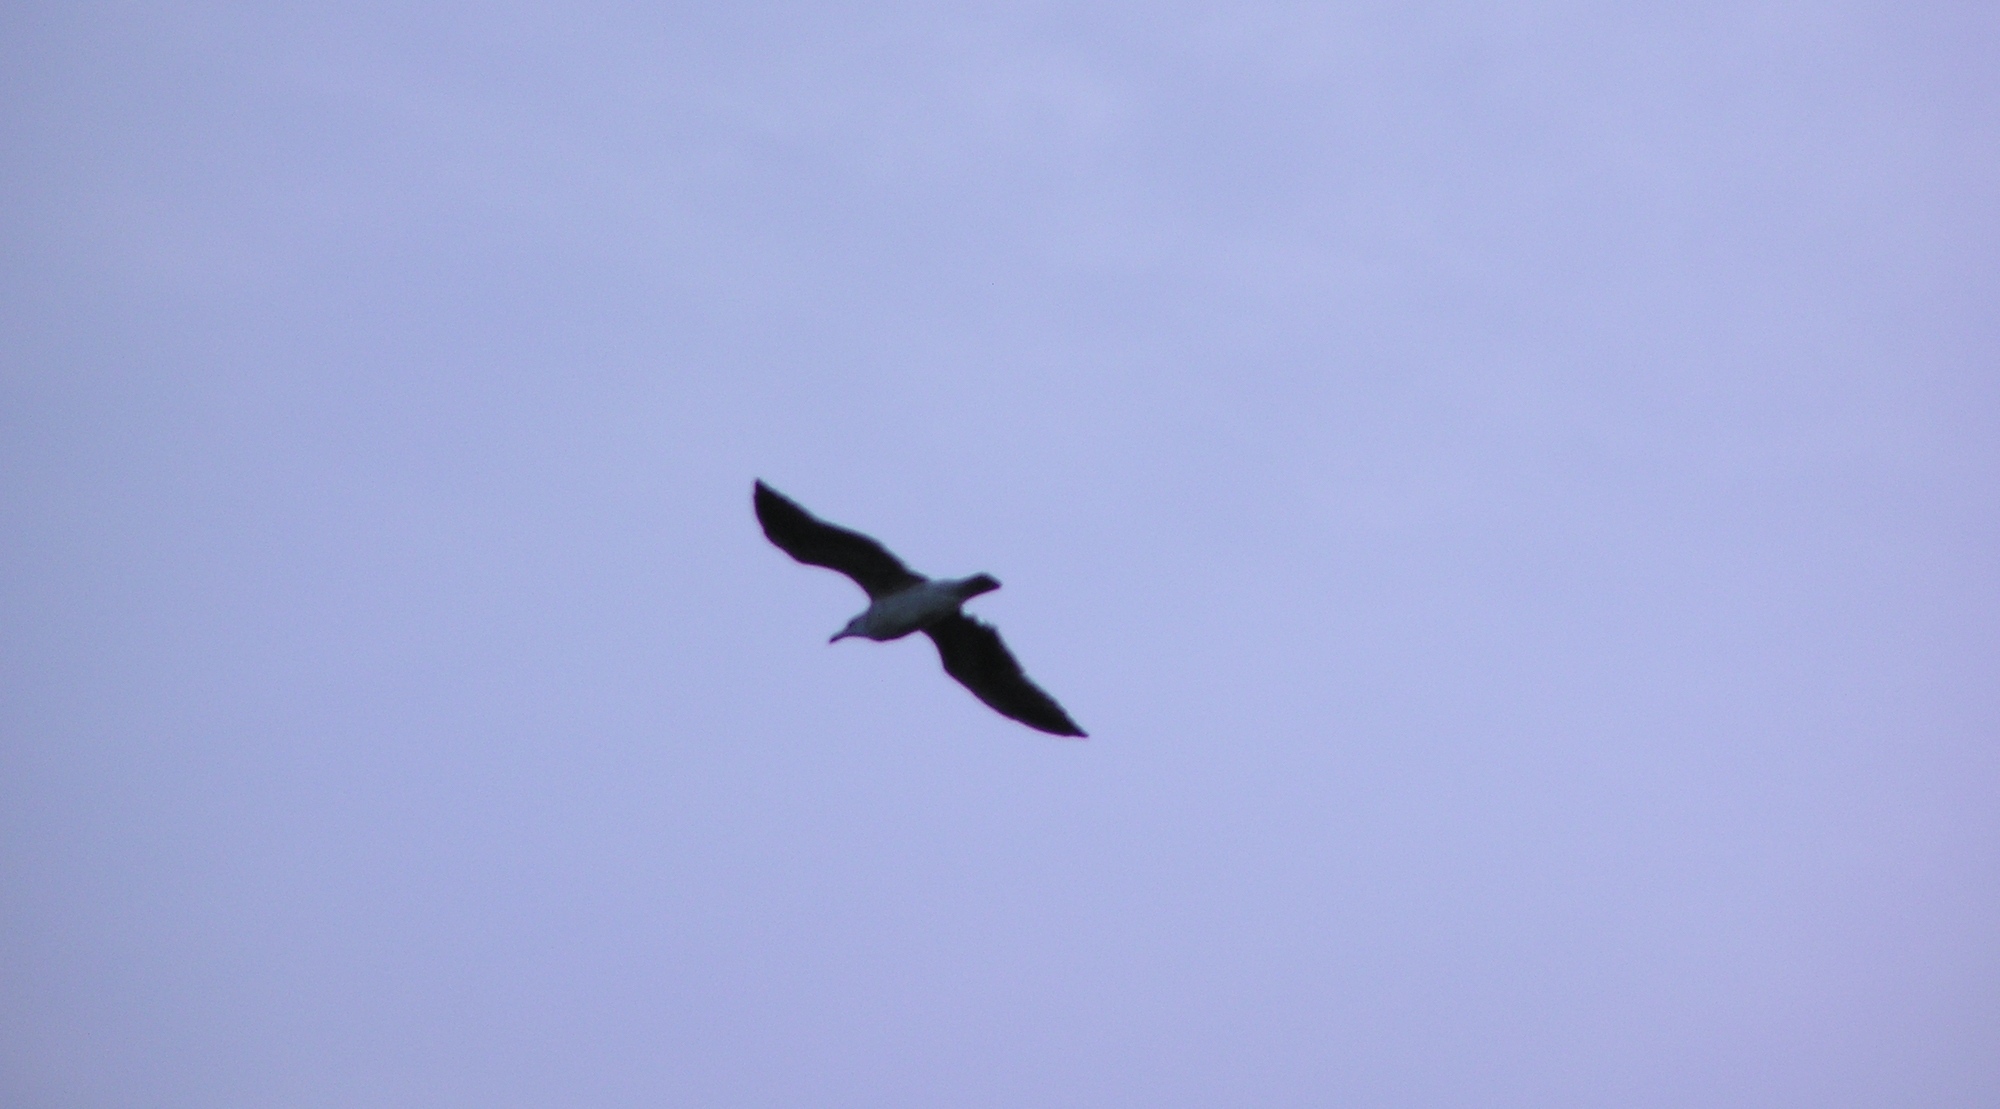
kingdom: Animalia
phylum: Chordata
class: Aves
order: Charadriiformes
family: Laridae
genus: Larus
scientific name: Larus dominicanus
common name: Kelp gull
